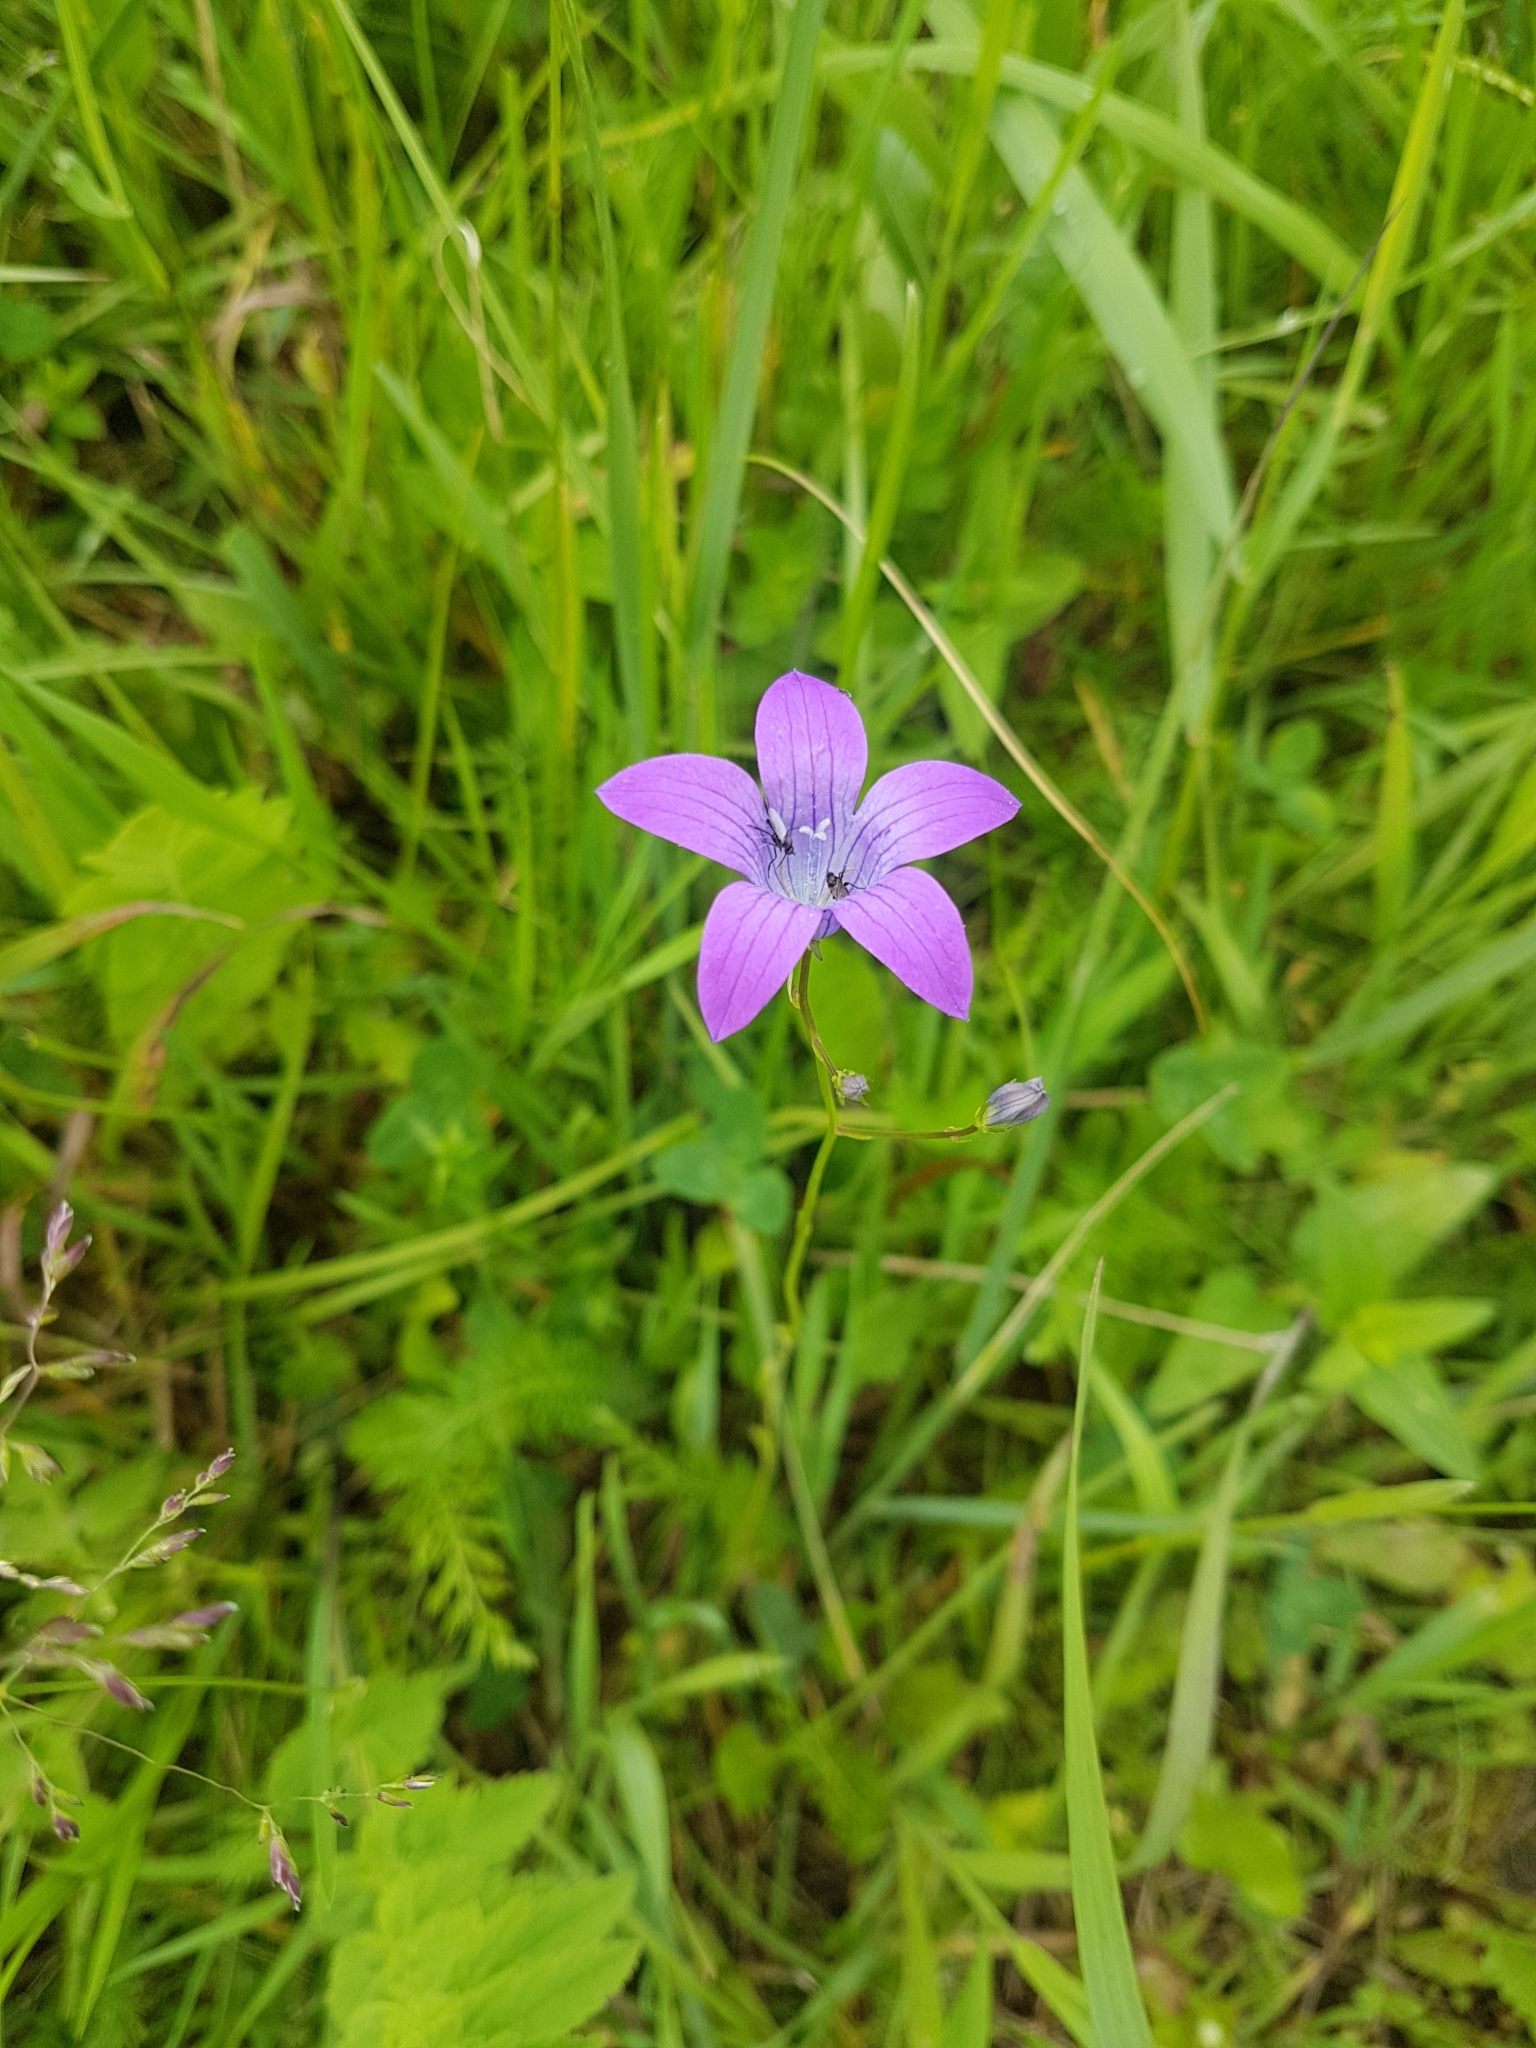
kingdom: Plantae
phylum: Tracheophyta
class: Magnoliopsida
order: Asterales
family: Campanulaceae
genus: Campanula
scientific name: Campanula patula
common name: Spreading bellflower
